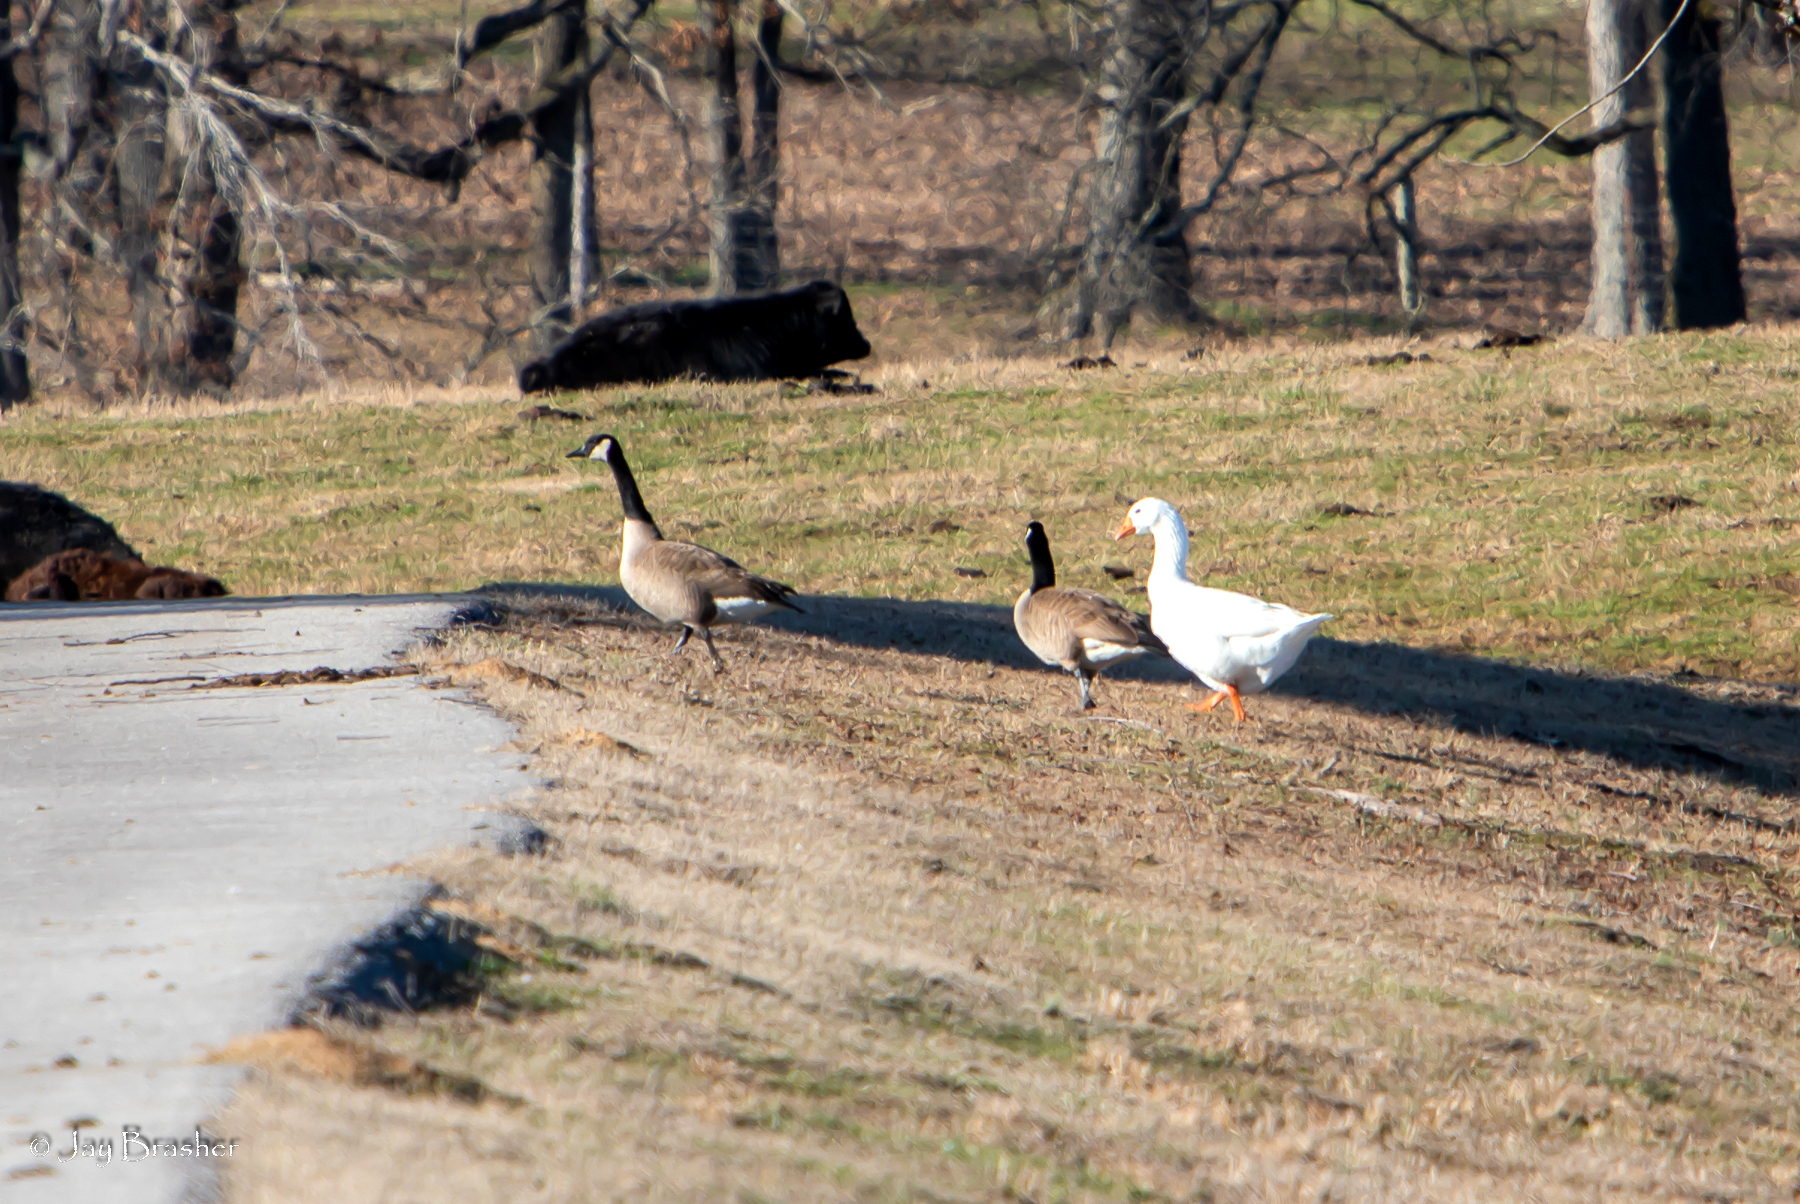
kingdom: Animalia
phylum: Chordata
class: Aves
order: Anseriformes
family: Anatidae
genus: Branta
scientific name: Branta canadensis
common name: Canada goose
